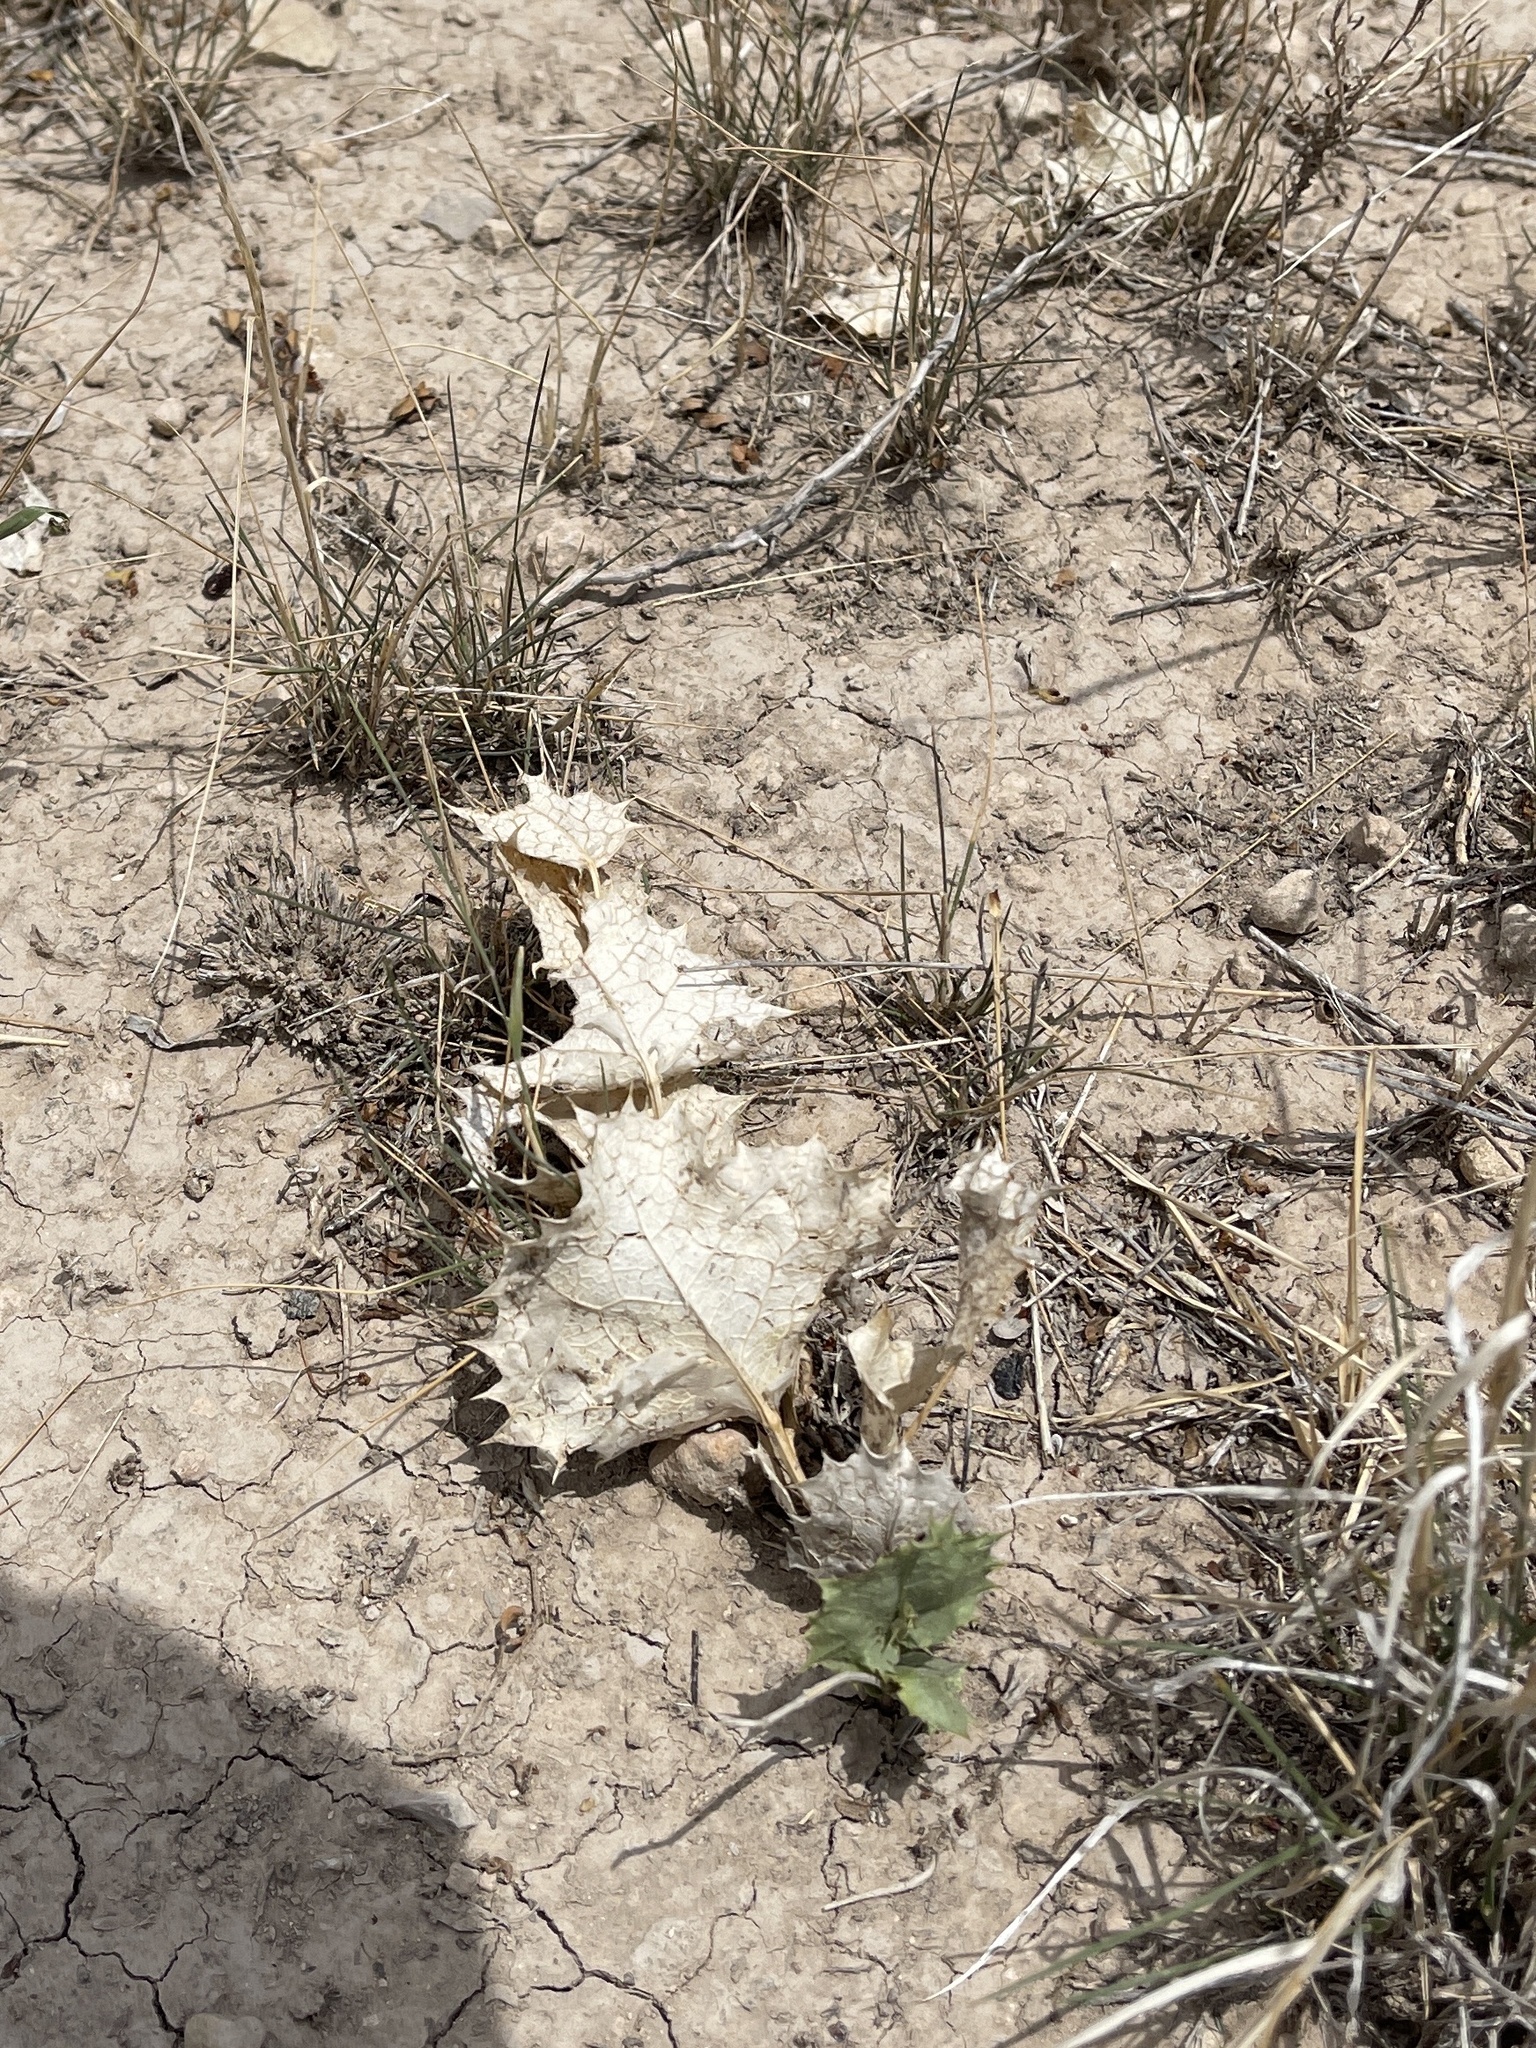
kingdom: Plantae
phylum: Tracheophyta
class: Magnoliopsida
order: Asterales
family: Asteraceae
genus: Acourtia
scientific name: Acourtia nana
